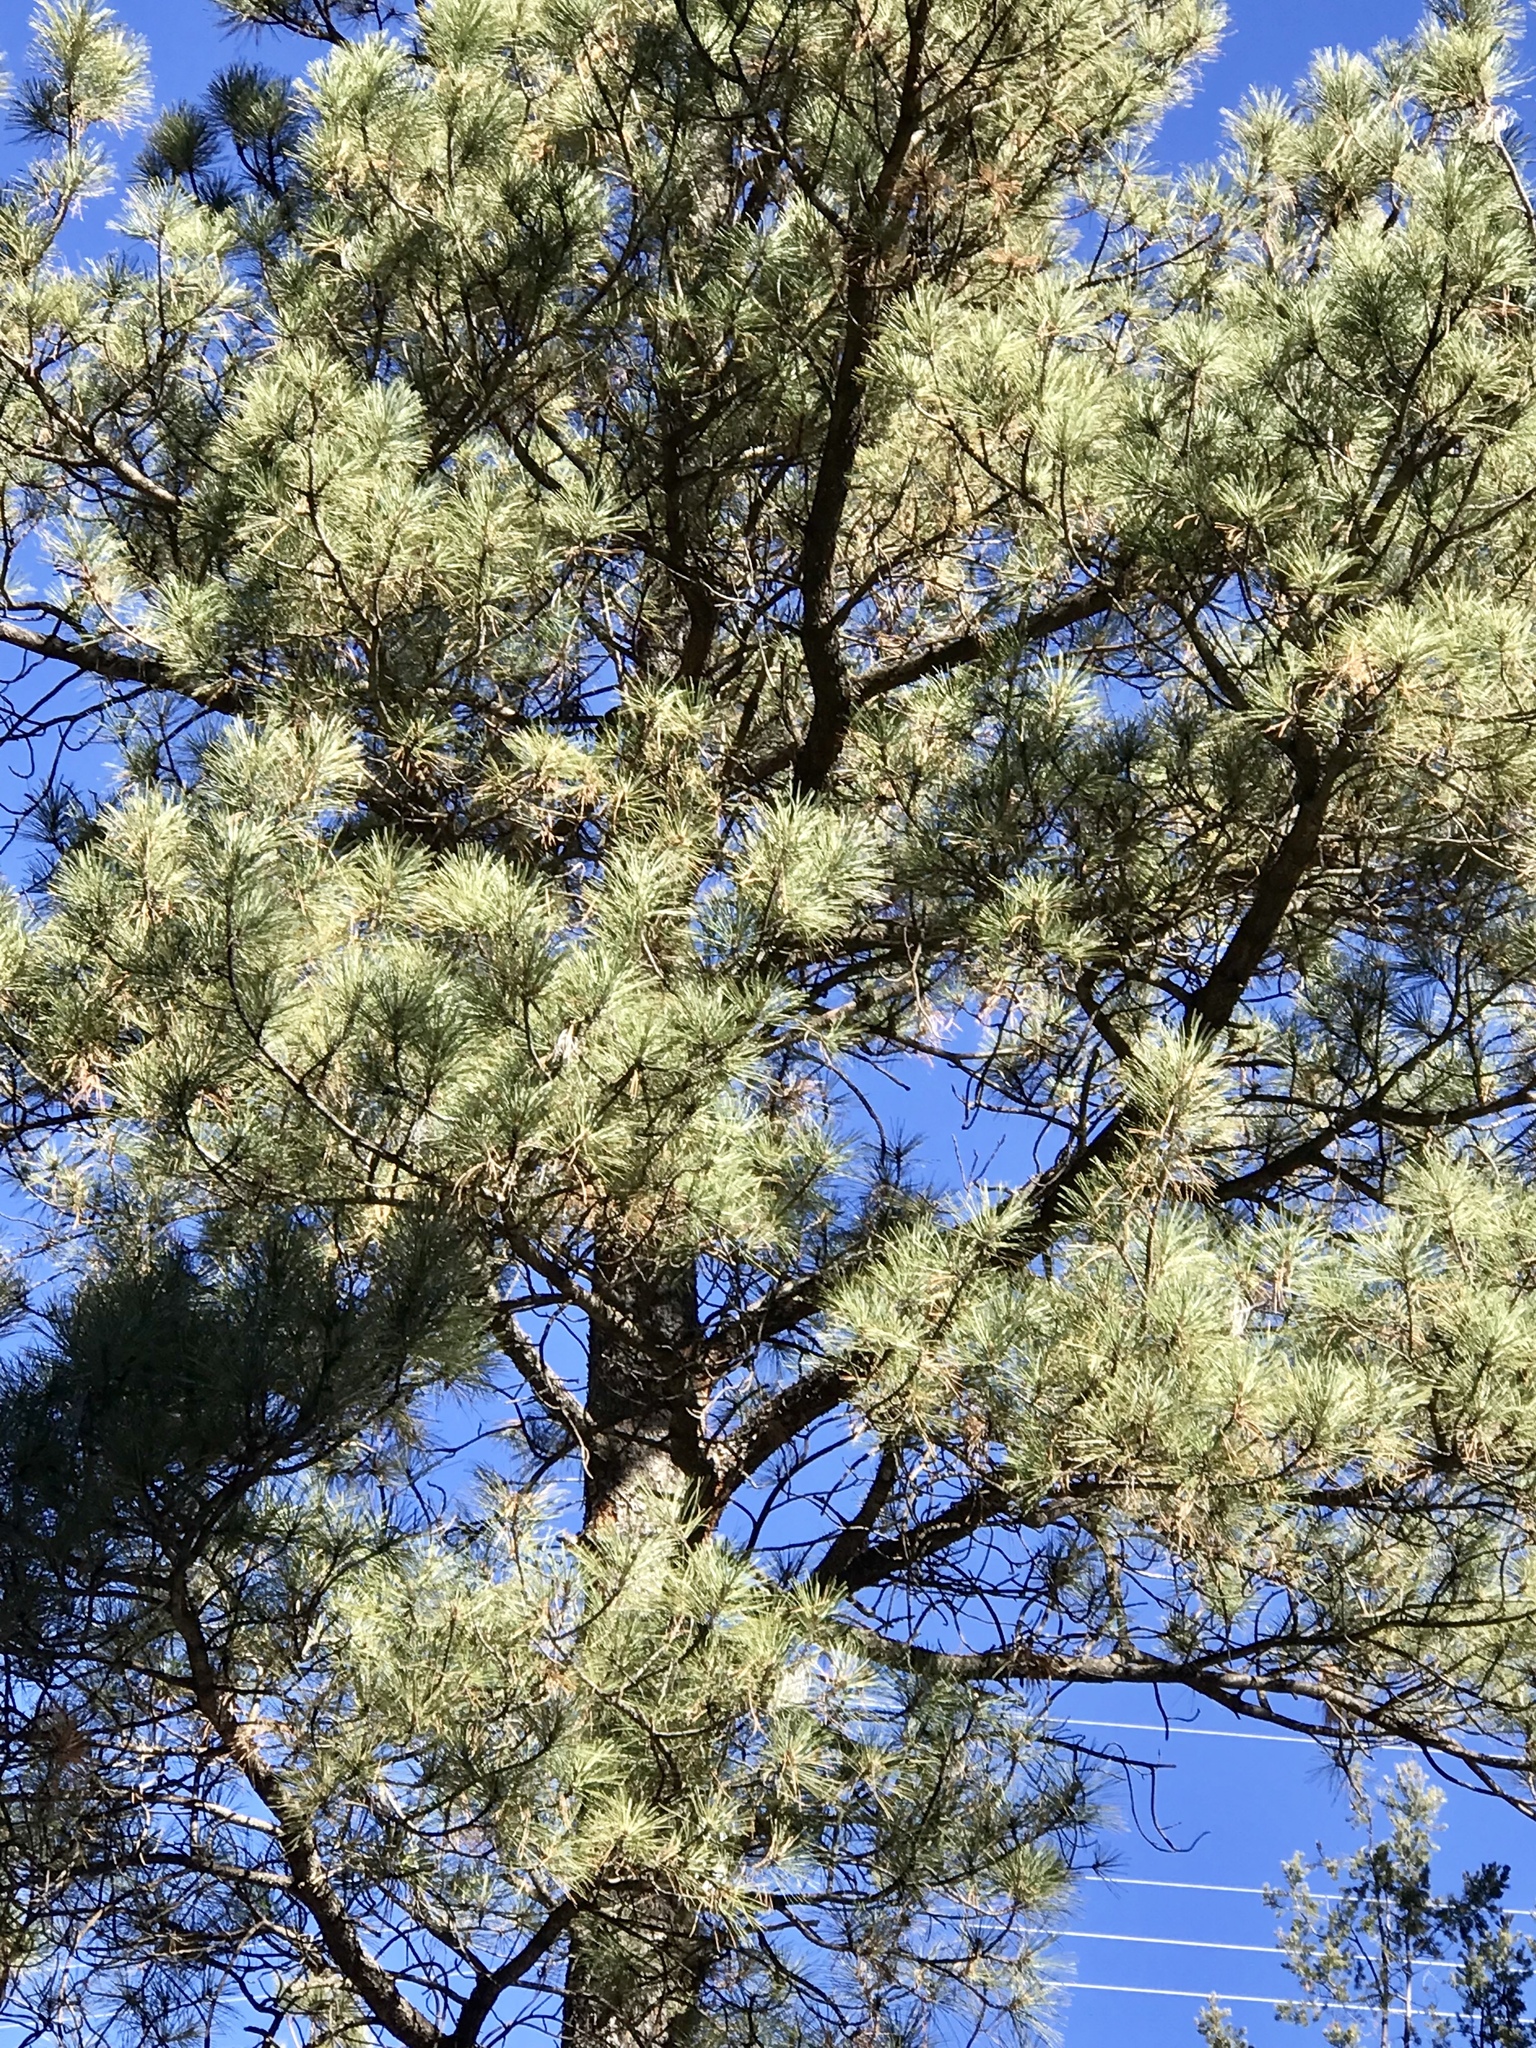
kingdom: Plantae
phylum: Tracheophyta
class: Pinopsida
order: Pinales
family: Pinaceae
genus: Pinus
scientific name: Pinus ponderosa
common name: Western yellow-pine
